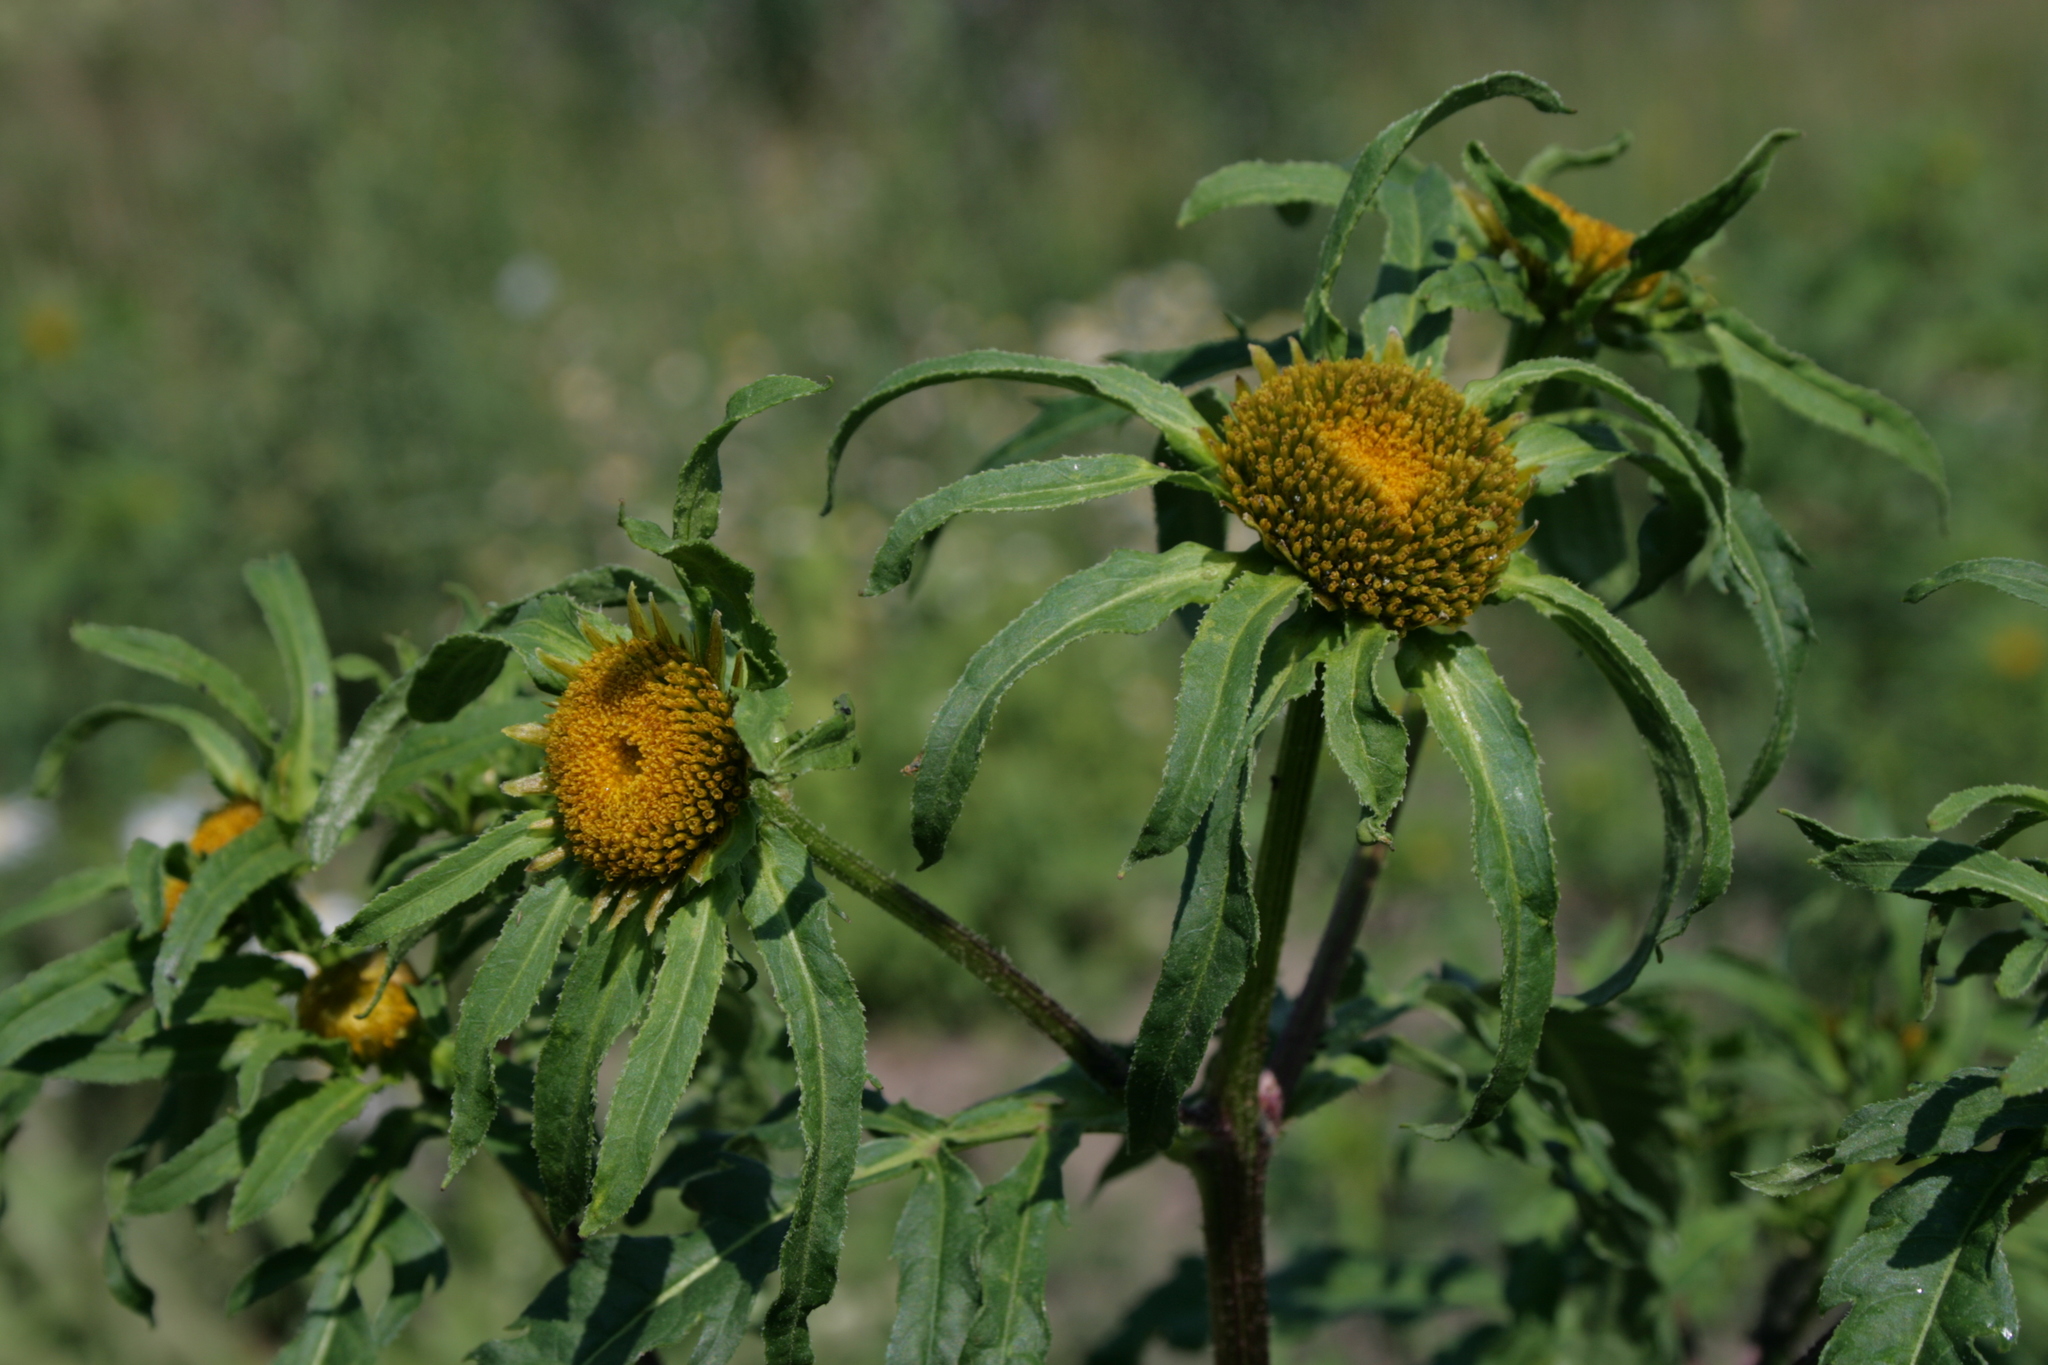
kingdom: Plantae
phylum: Tracheophyta
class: Magnoliopsida
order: Asterales
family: Asteraceae
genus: Bidens
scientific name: Bidens radiata
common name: Radiating bur-marigold
